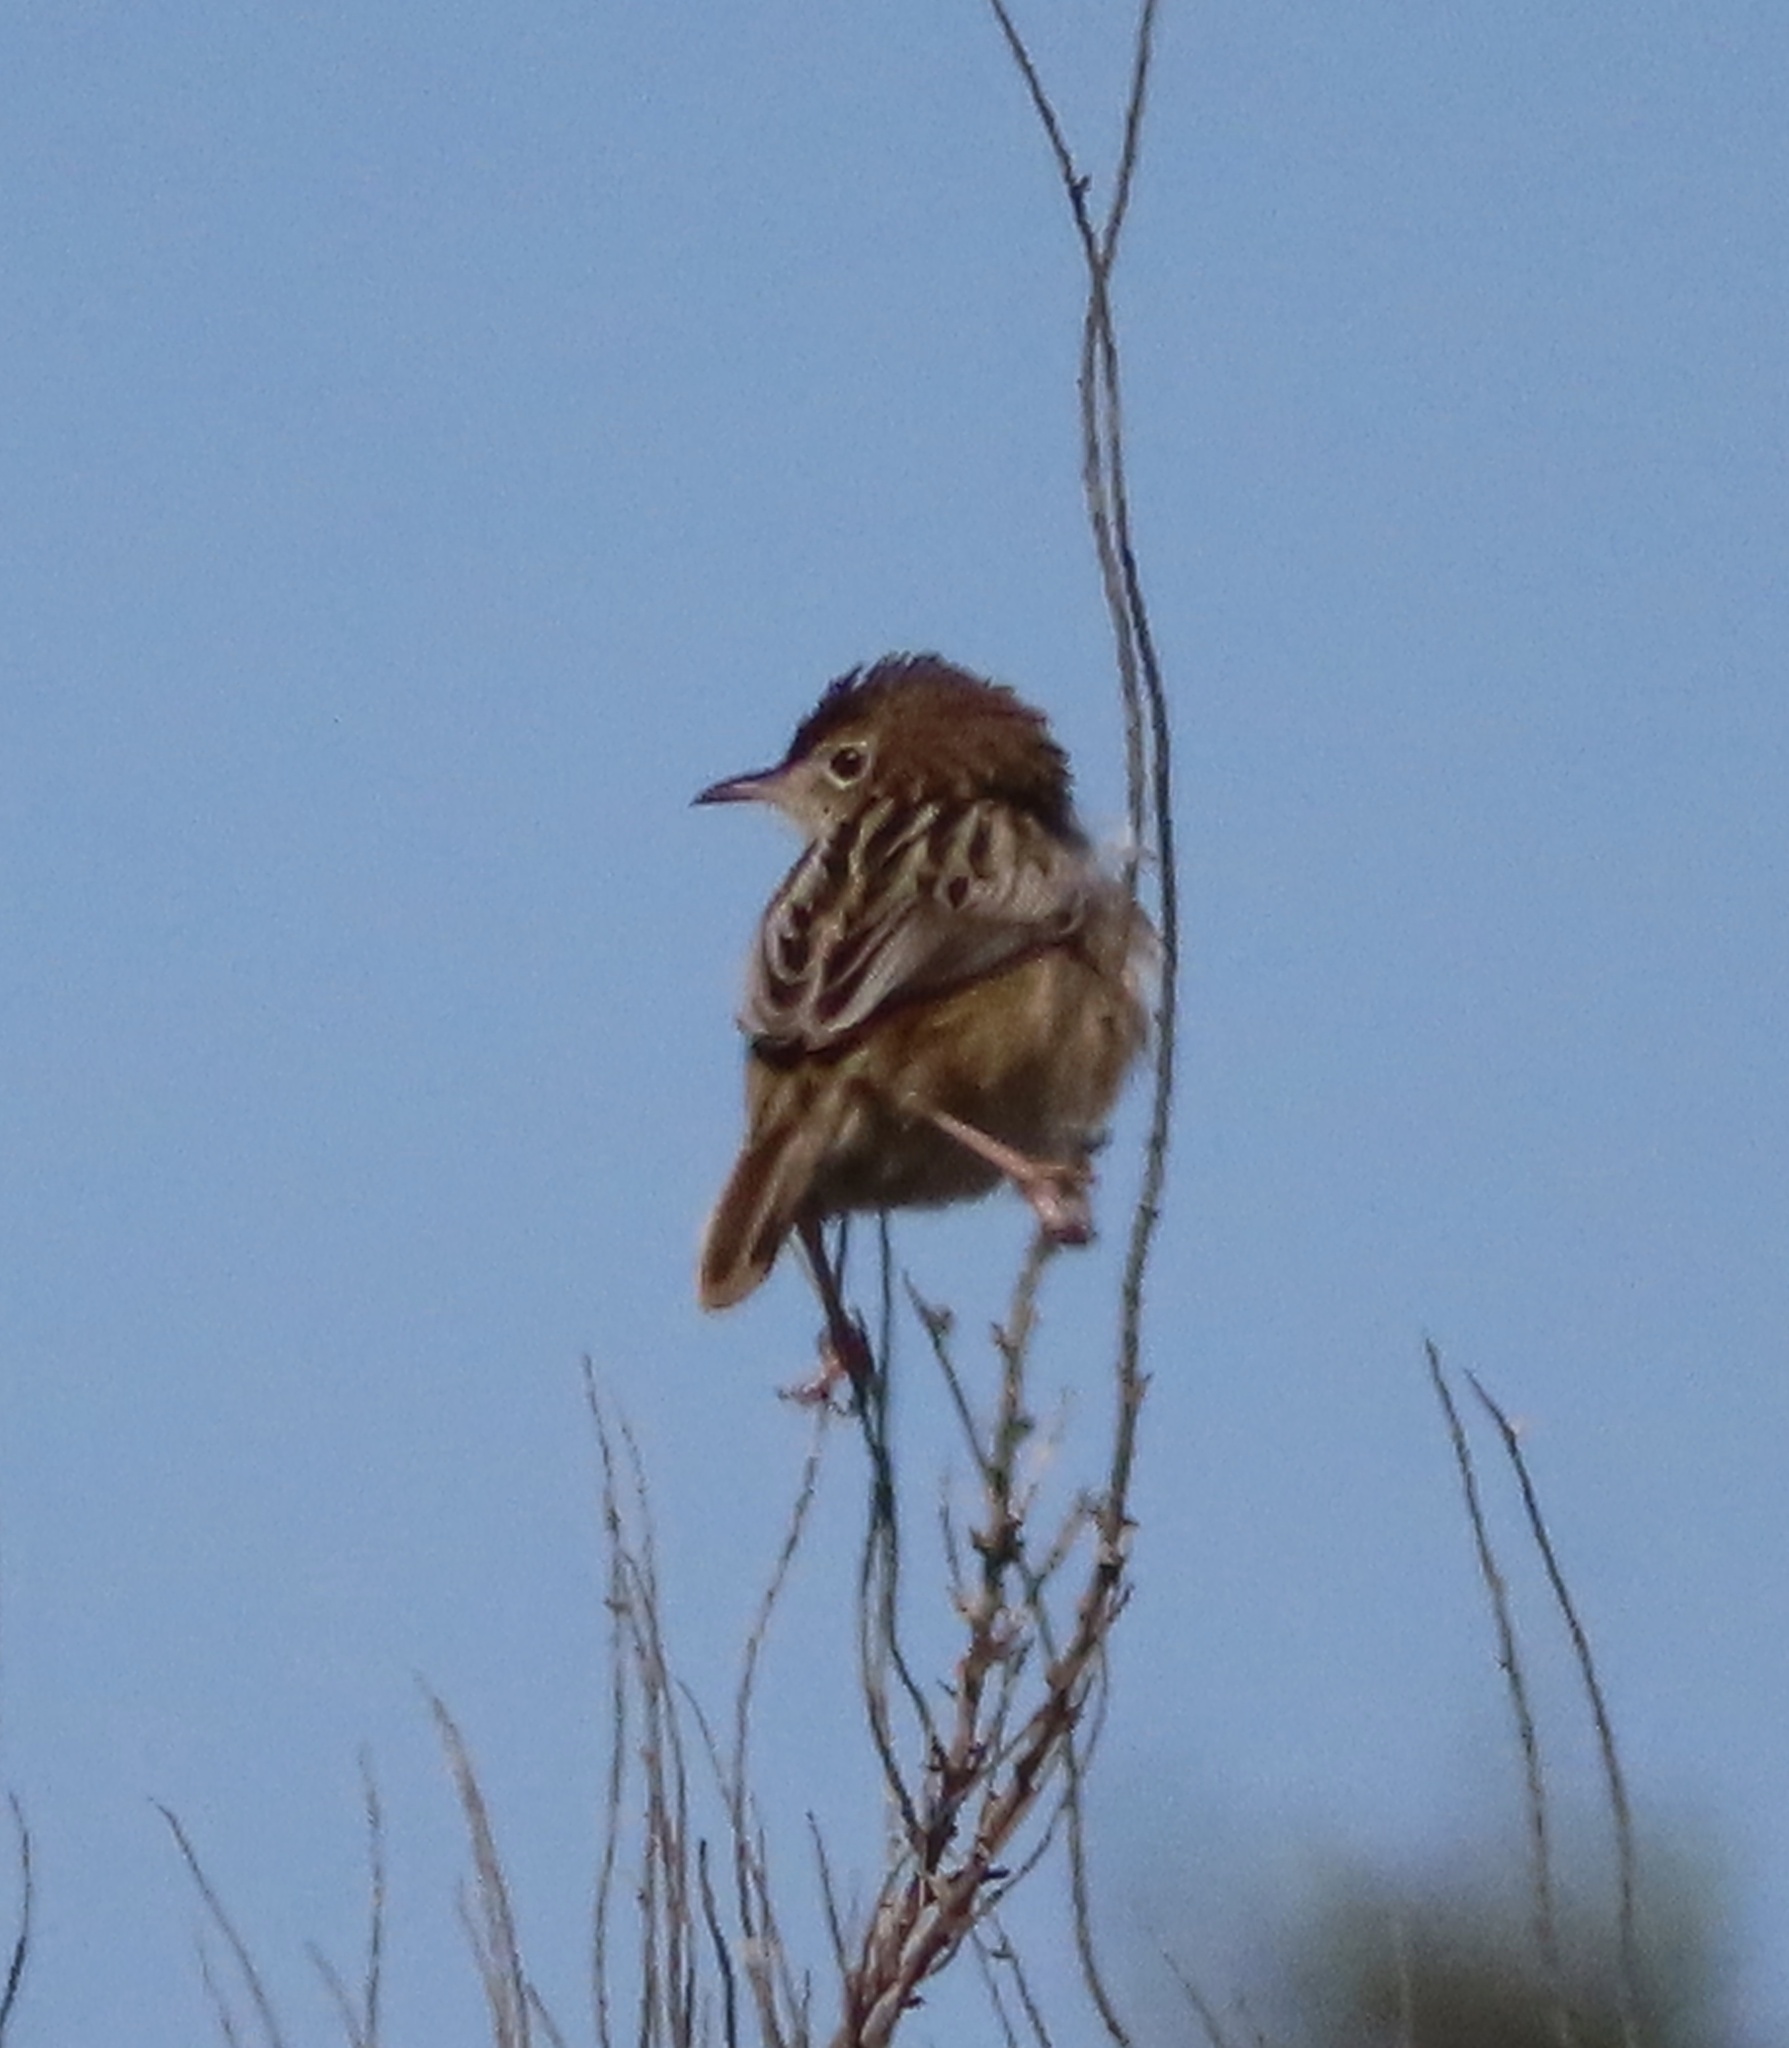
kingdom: Animalia
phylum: Chordata
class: Aves
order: Passeriformes
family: Cisticolidae
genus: Cisticola
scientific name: Cisticola juncidis
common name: Zitting cisticola
